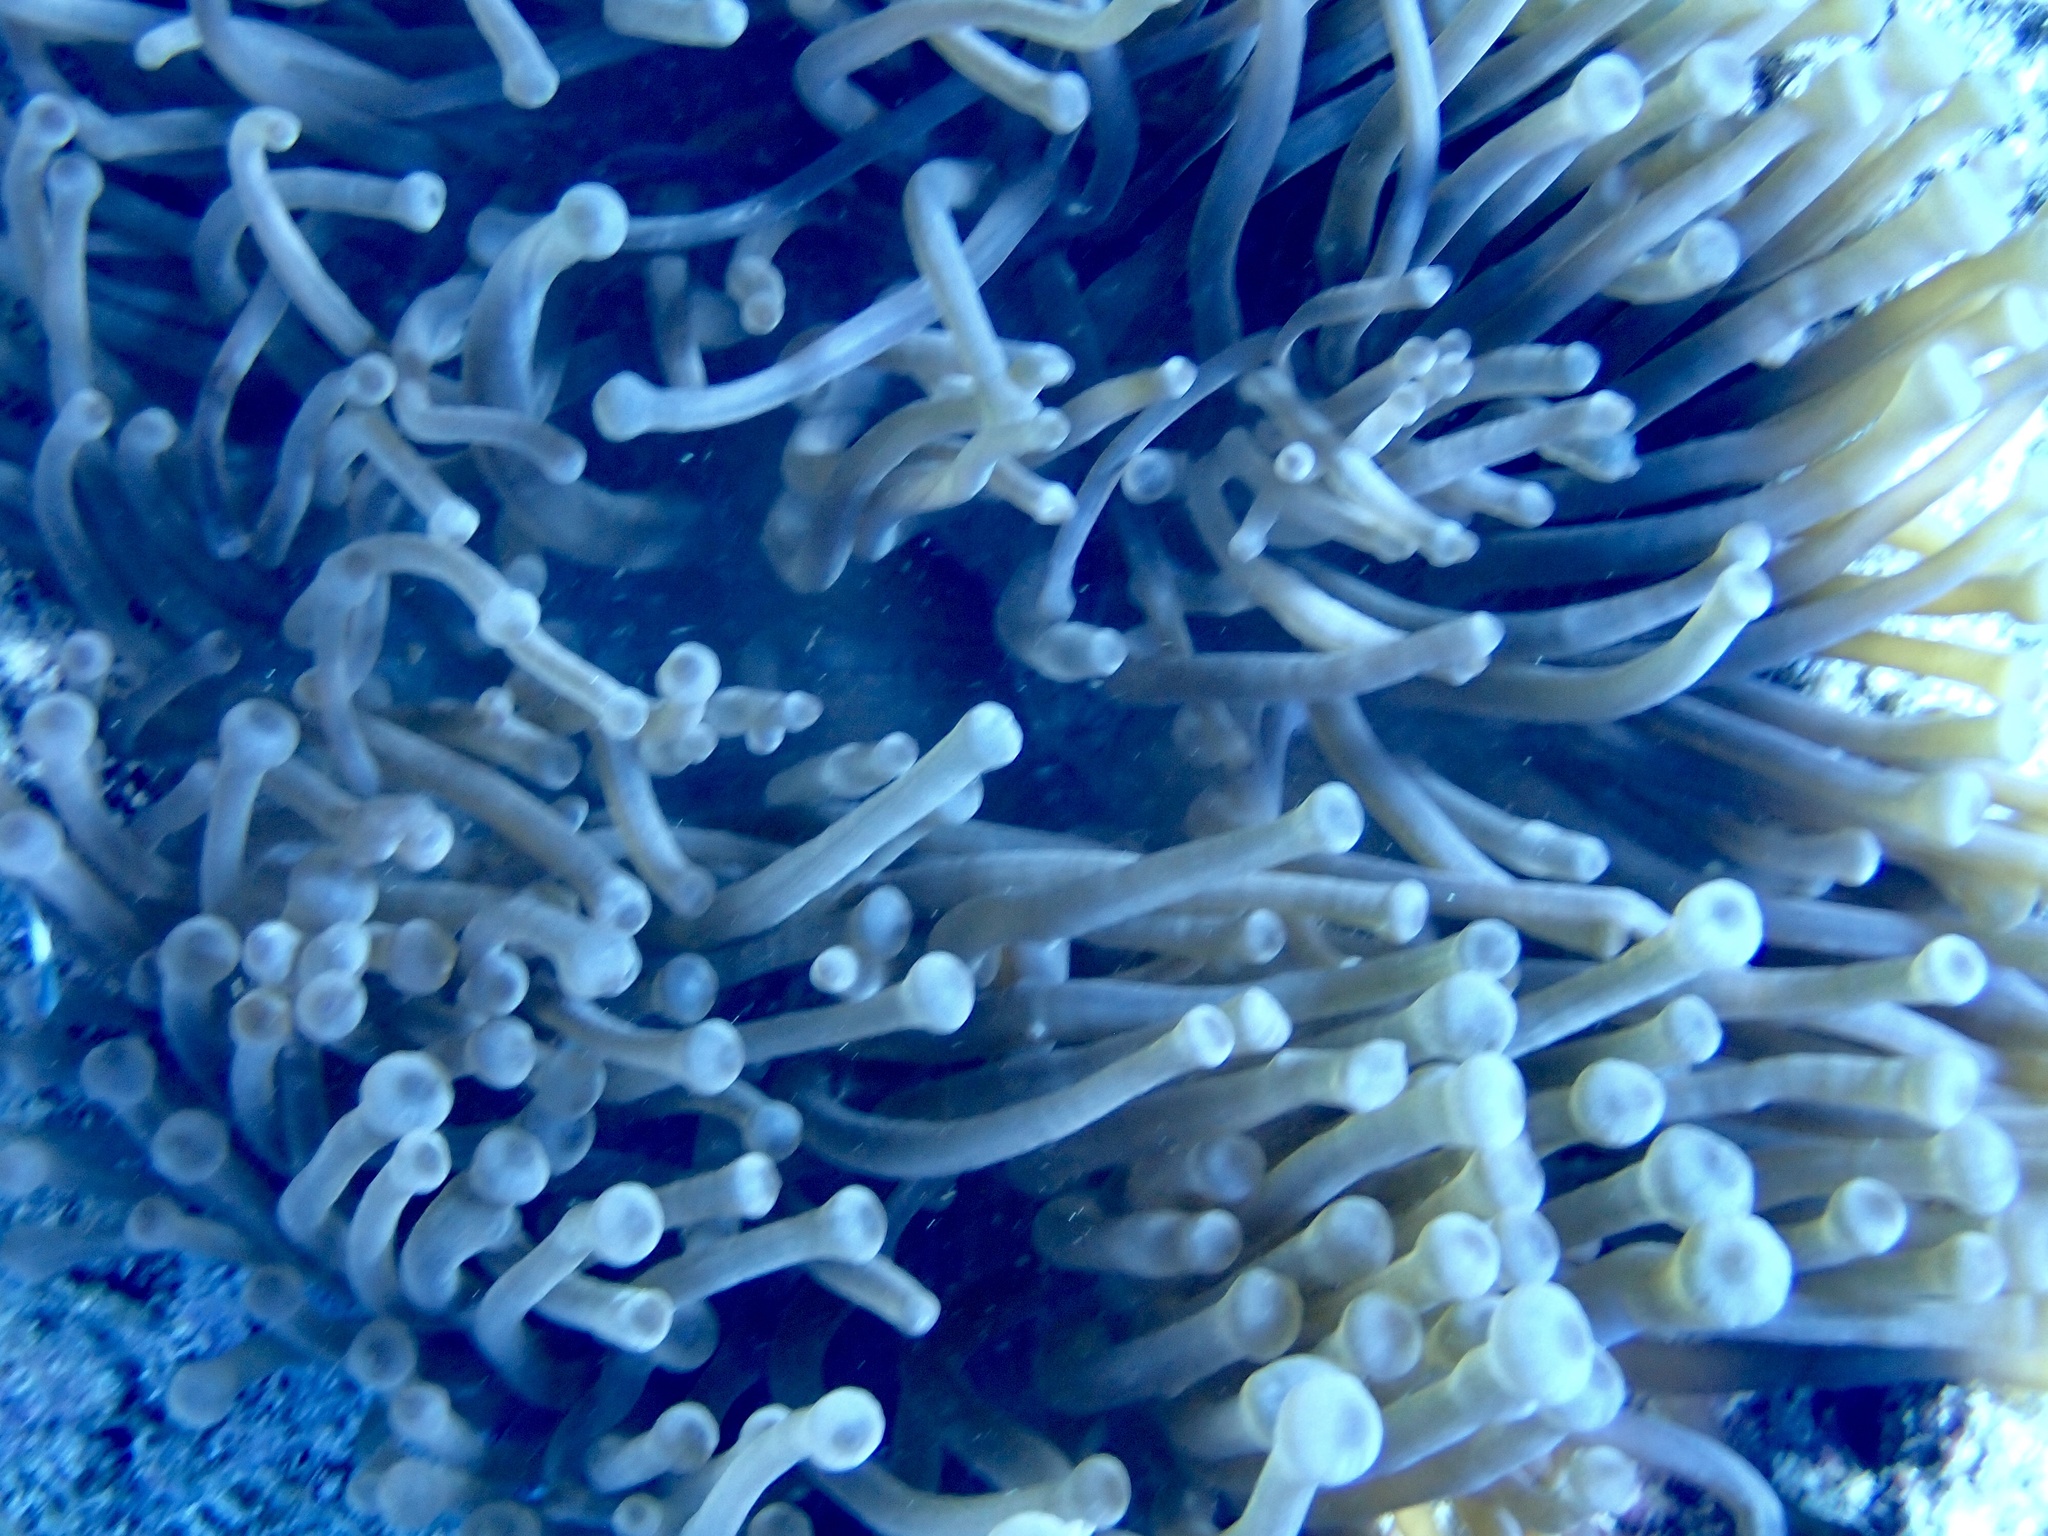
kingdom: Animalia
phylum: Cnidaria
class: Anthozoa
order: Actiniaria
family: Stichodactylidae
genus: Radianthus
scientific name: Radianthus magnifica
